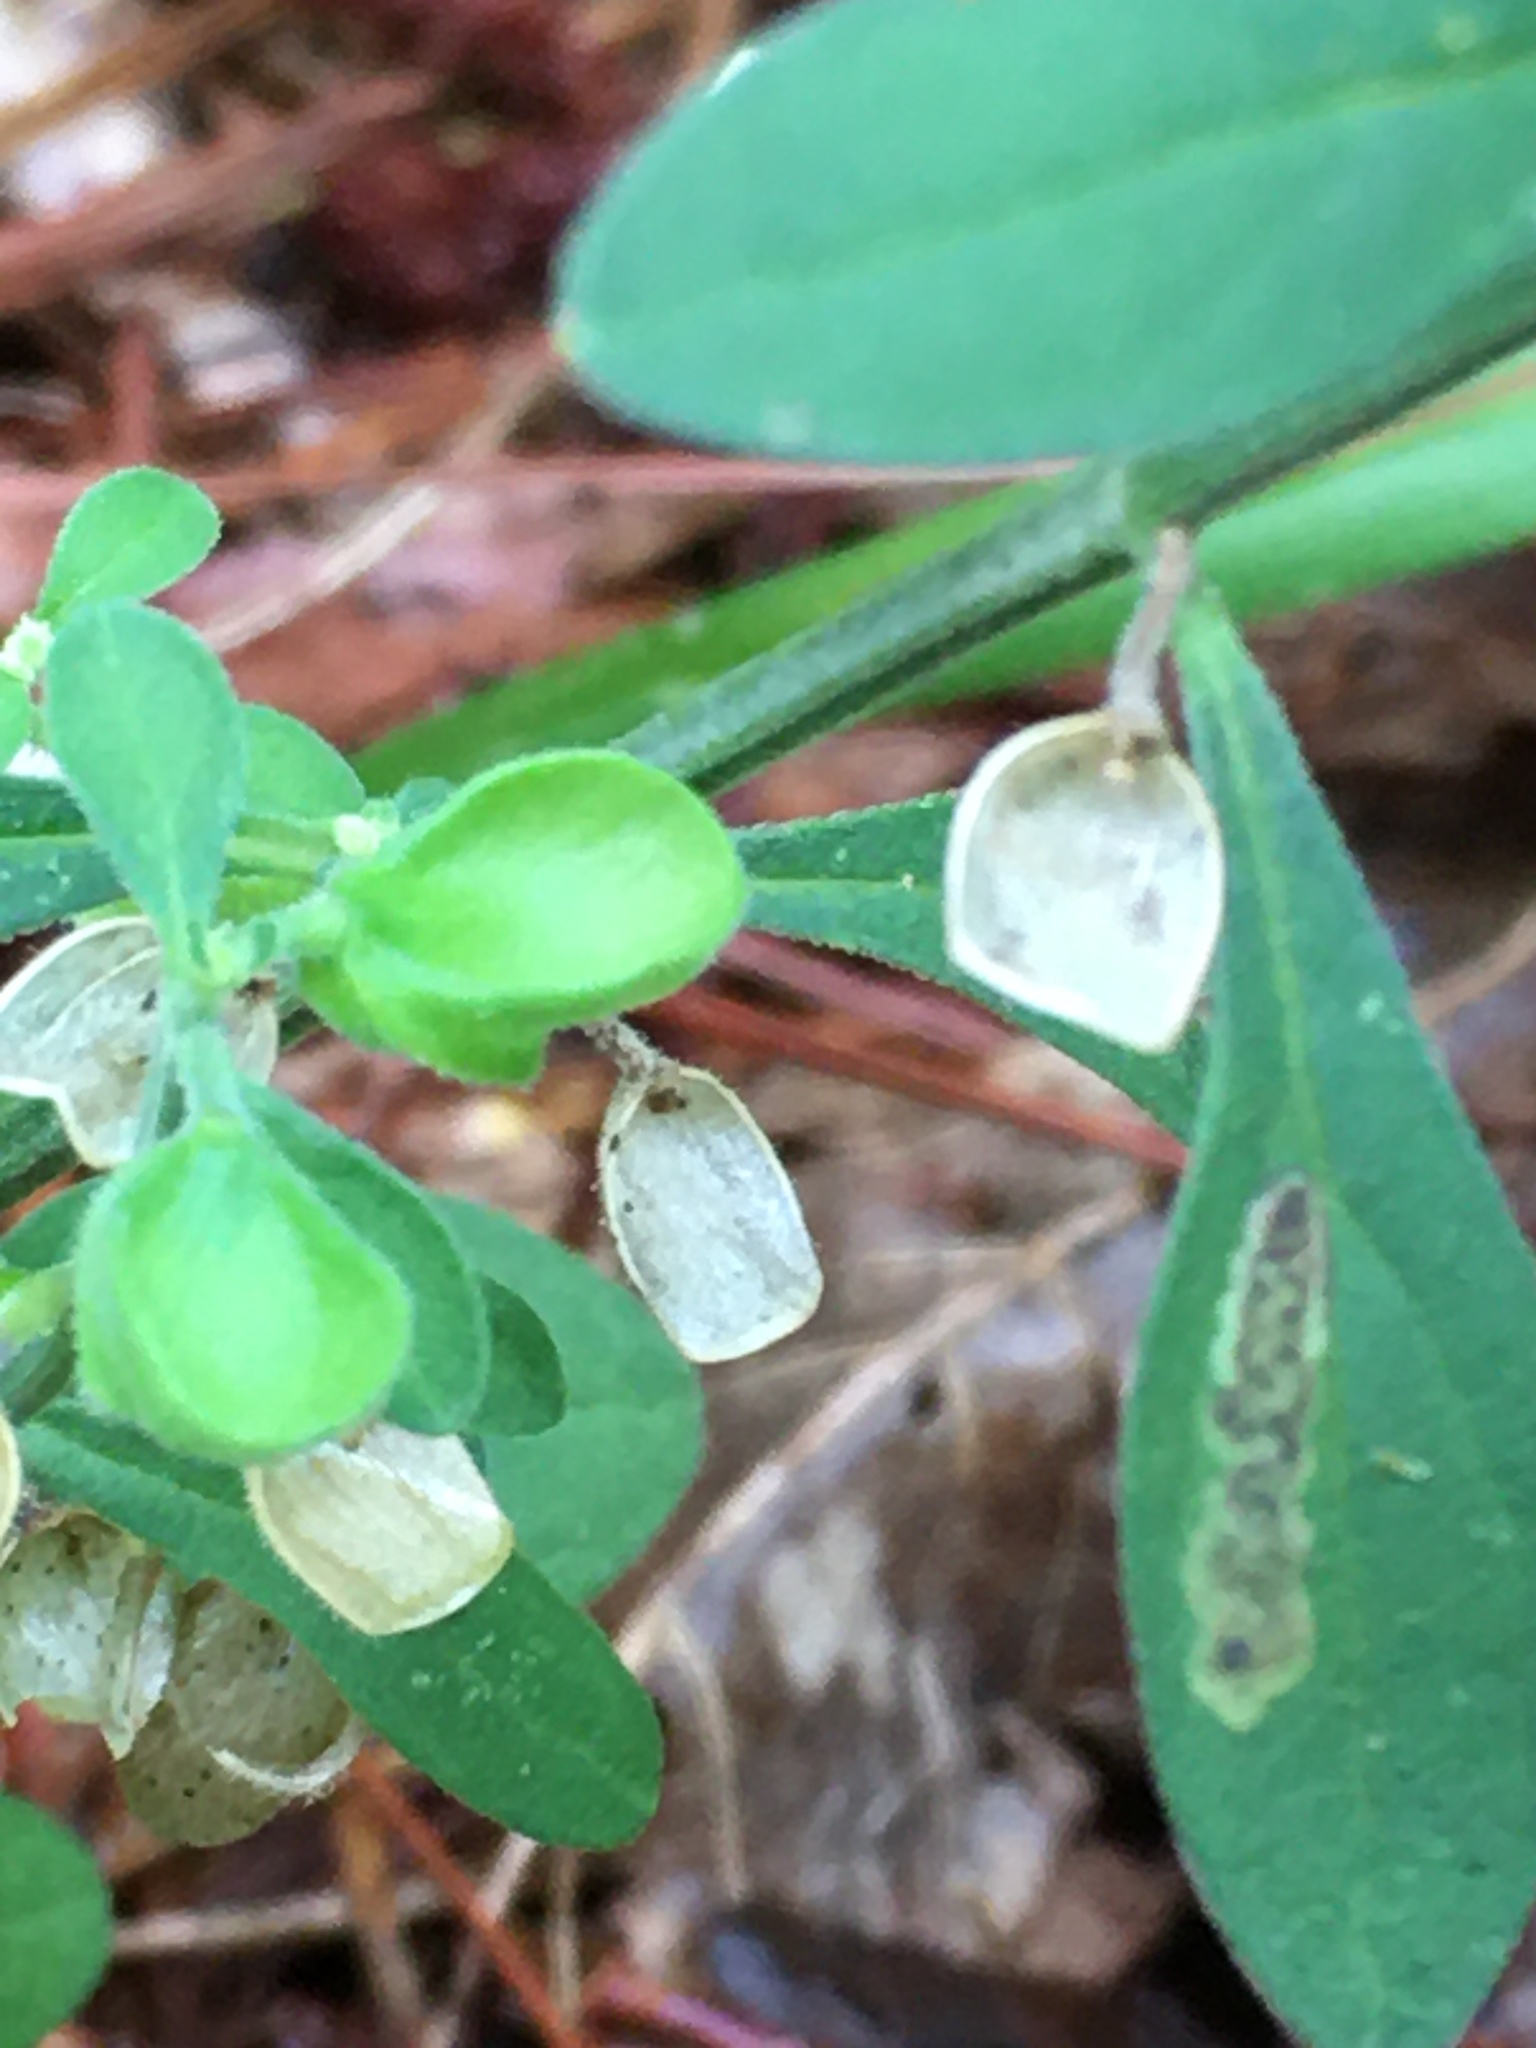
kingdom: Plantae
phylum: Tracheophyta
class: Magnoliopsida
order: Lamiales
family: Lamiaceae
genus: Scutellaria
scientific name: Scutellaria integrifolia
